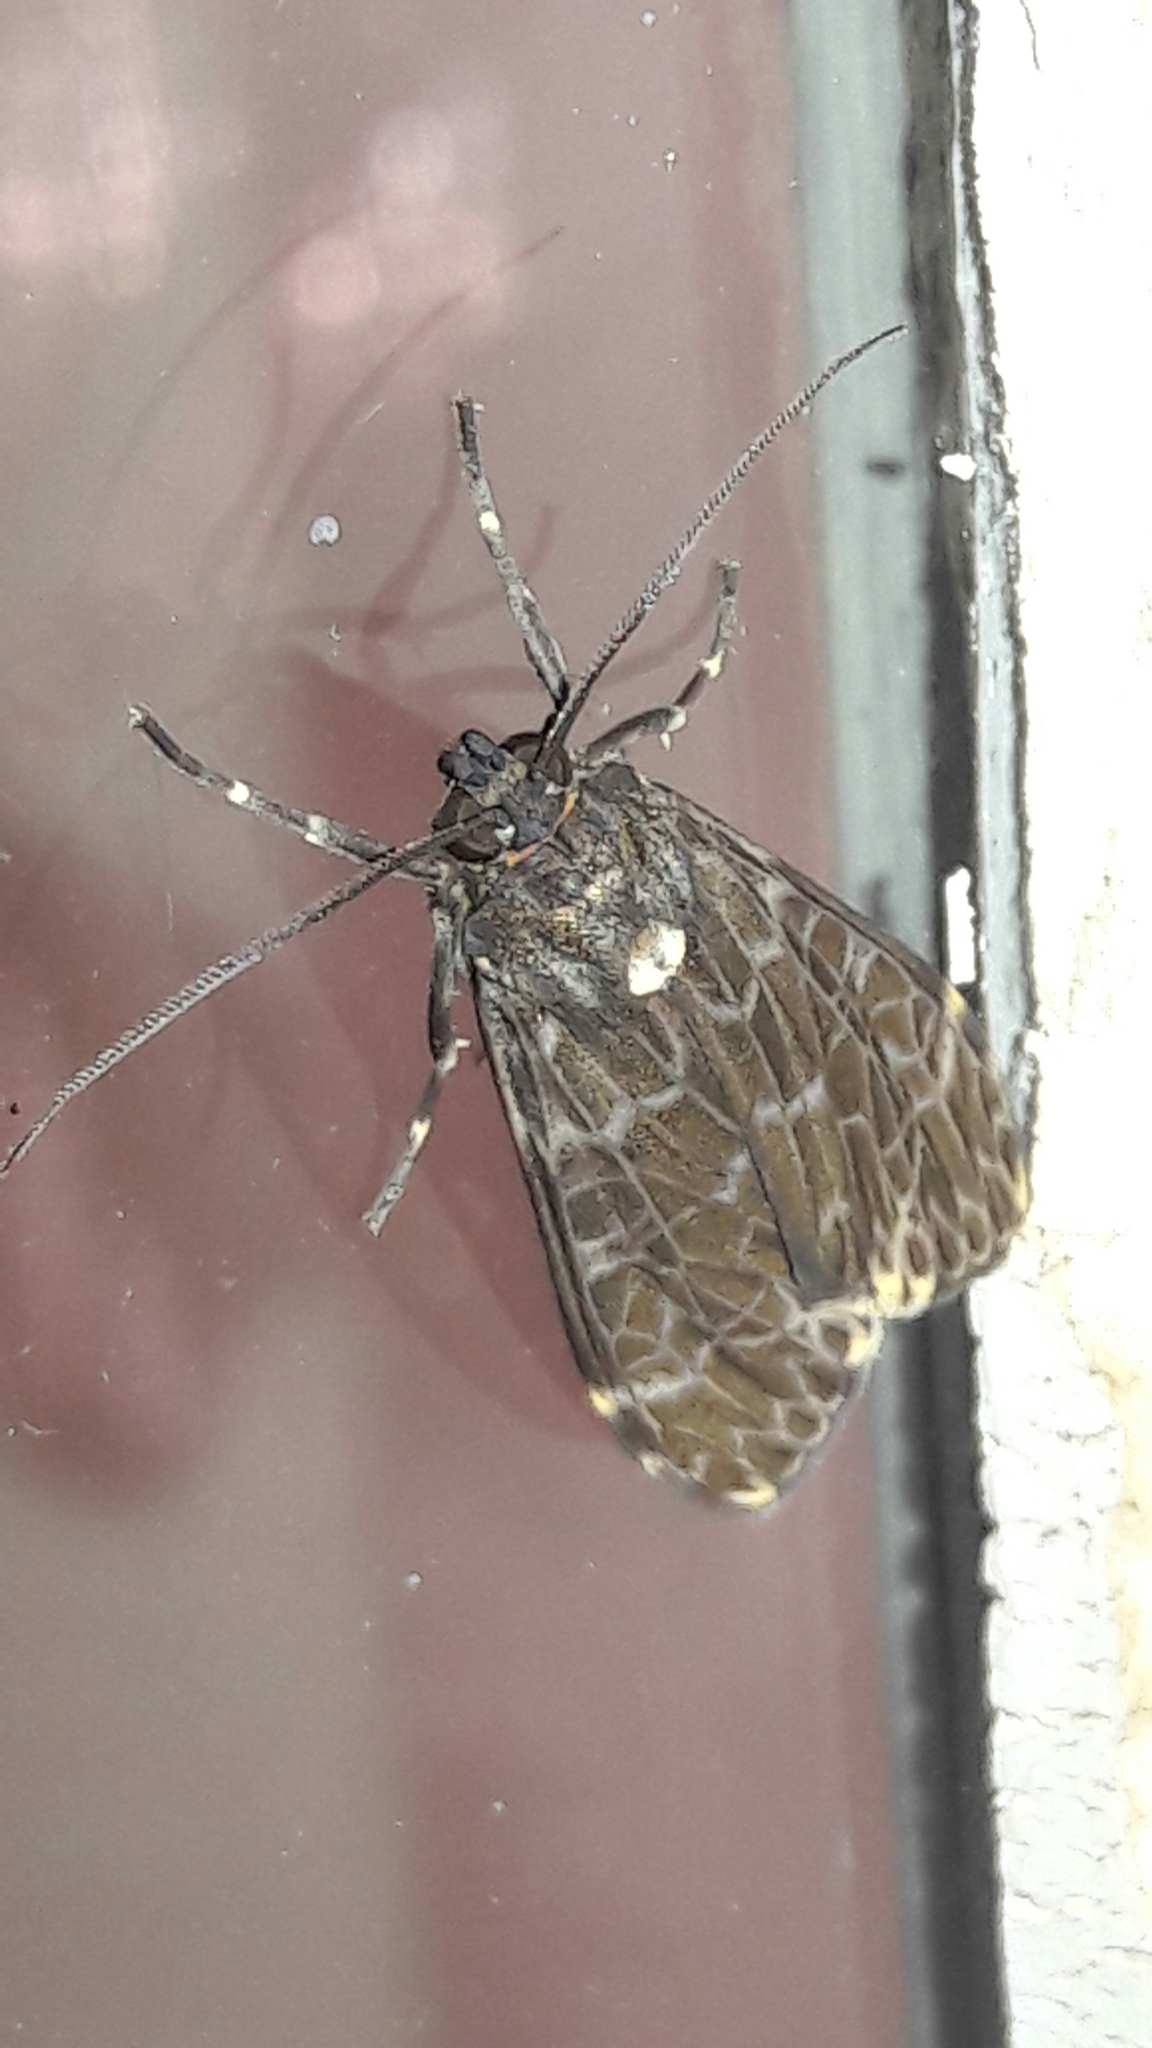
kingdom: Animalia
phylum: Arthropoda
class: Insecta
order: Lepidoptera
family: Erebidae
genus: Eucereon
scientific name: Eucereon sylvius
